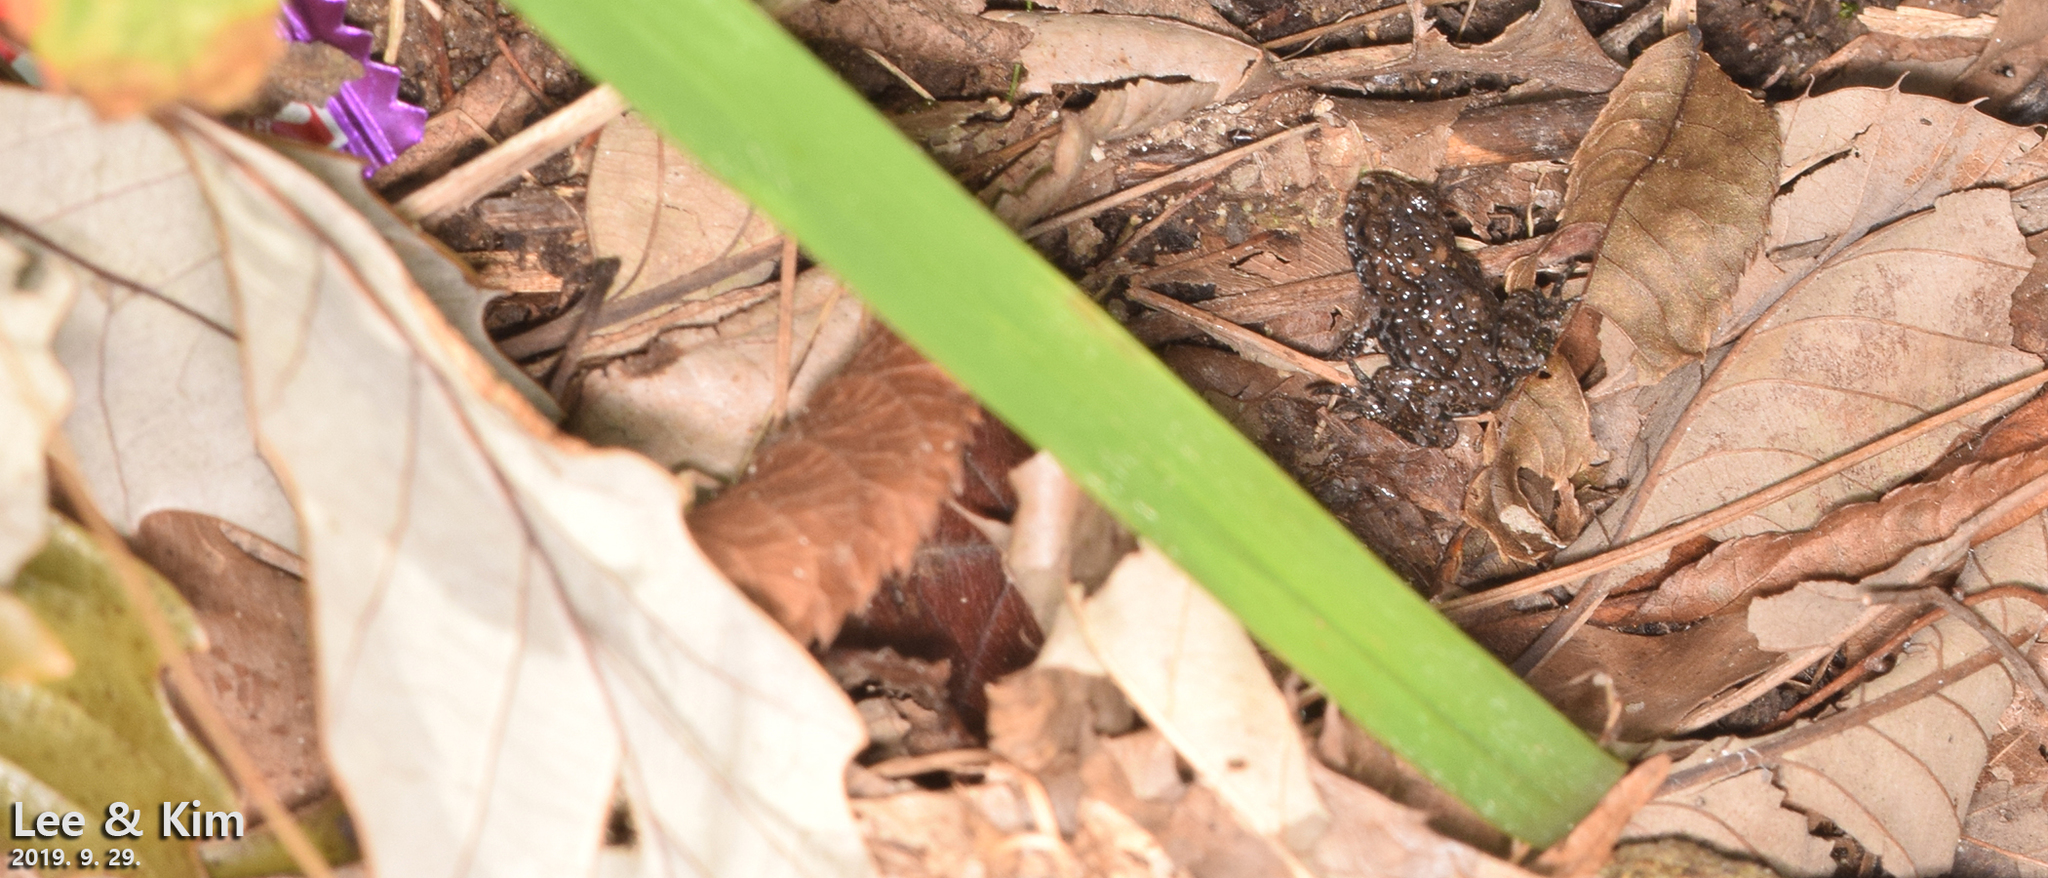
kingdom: Animalia
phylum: Chordata
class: Amphibia
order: Anura
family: Bombinatoridae
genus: Bombina
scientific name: Bombina orientalis
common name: Oriental firebelly toad
